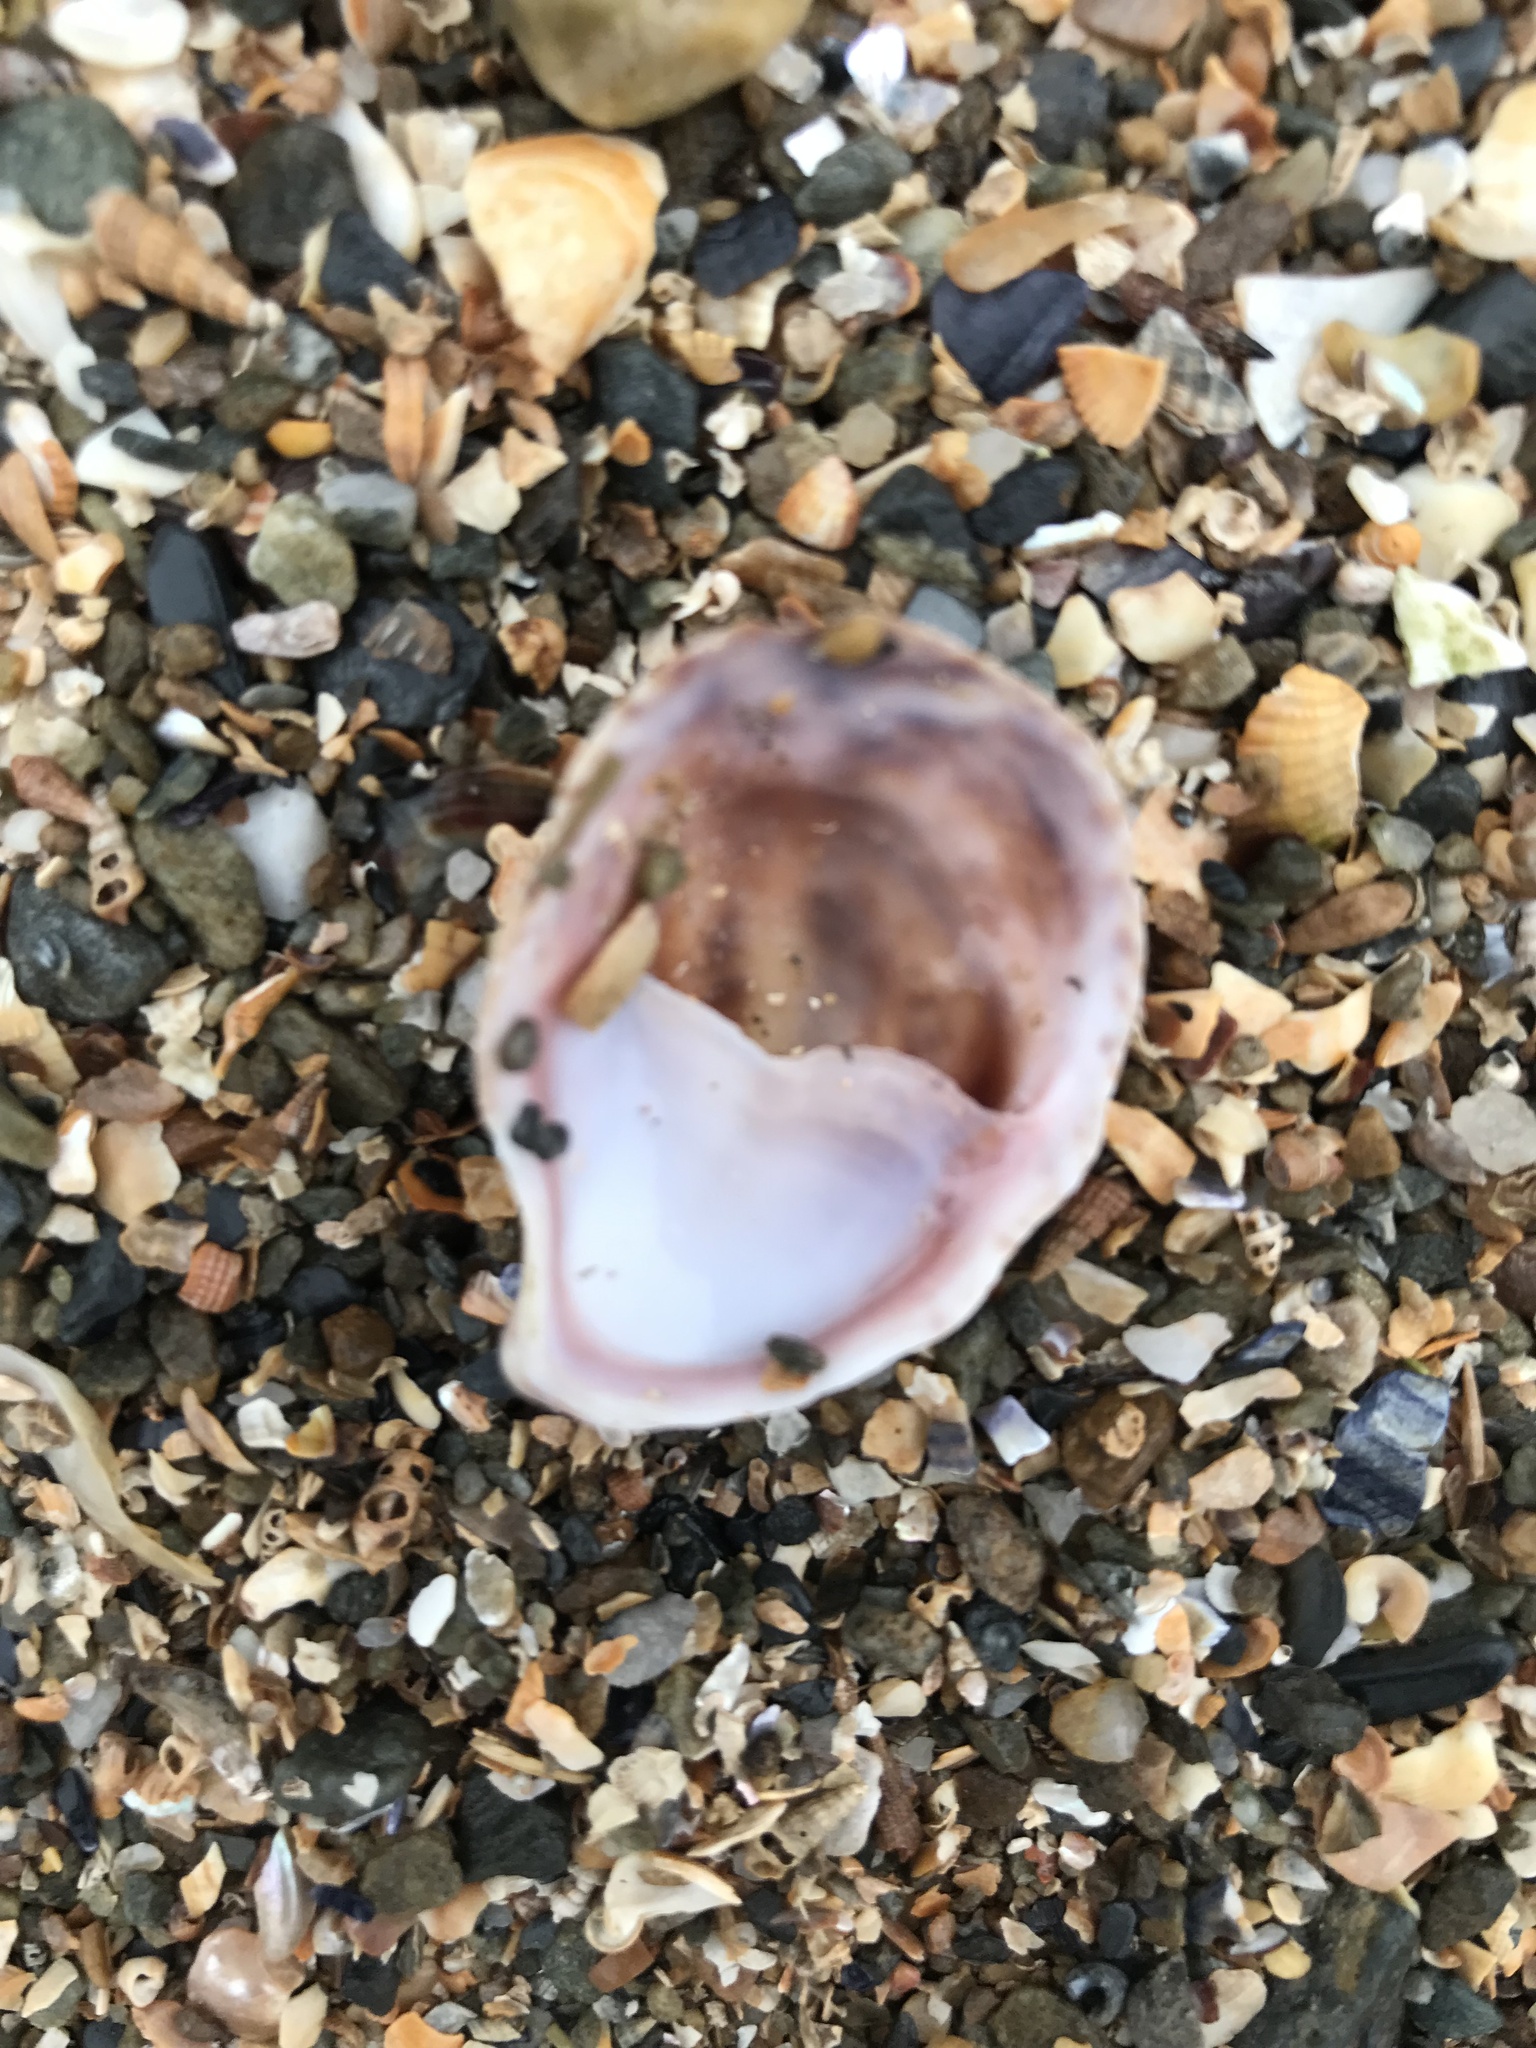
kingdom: Animalia
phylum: Mollusca
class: Gastropoda
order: Littorinimorpha
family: Calyptraeidae
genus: Crepidula
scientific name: Crepidula fornicata
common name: Slipper limpet
